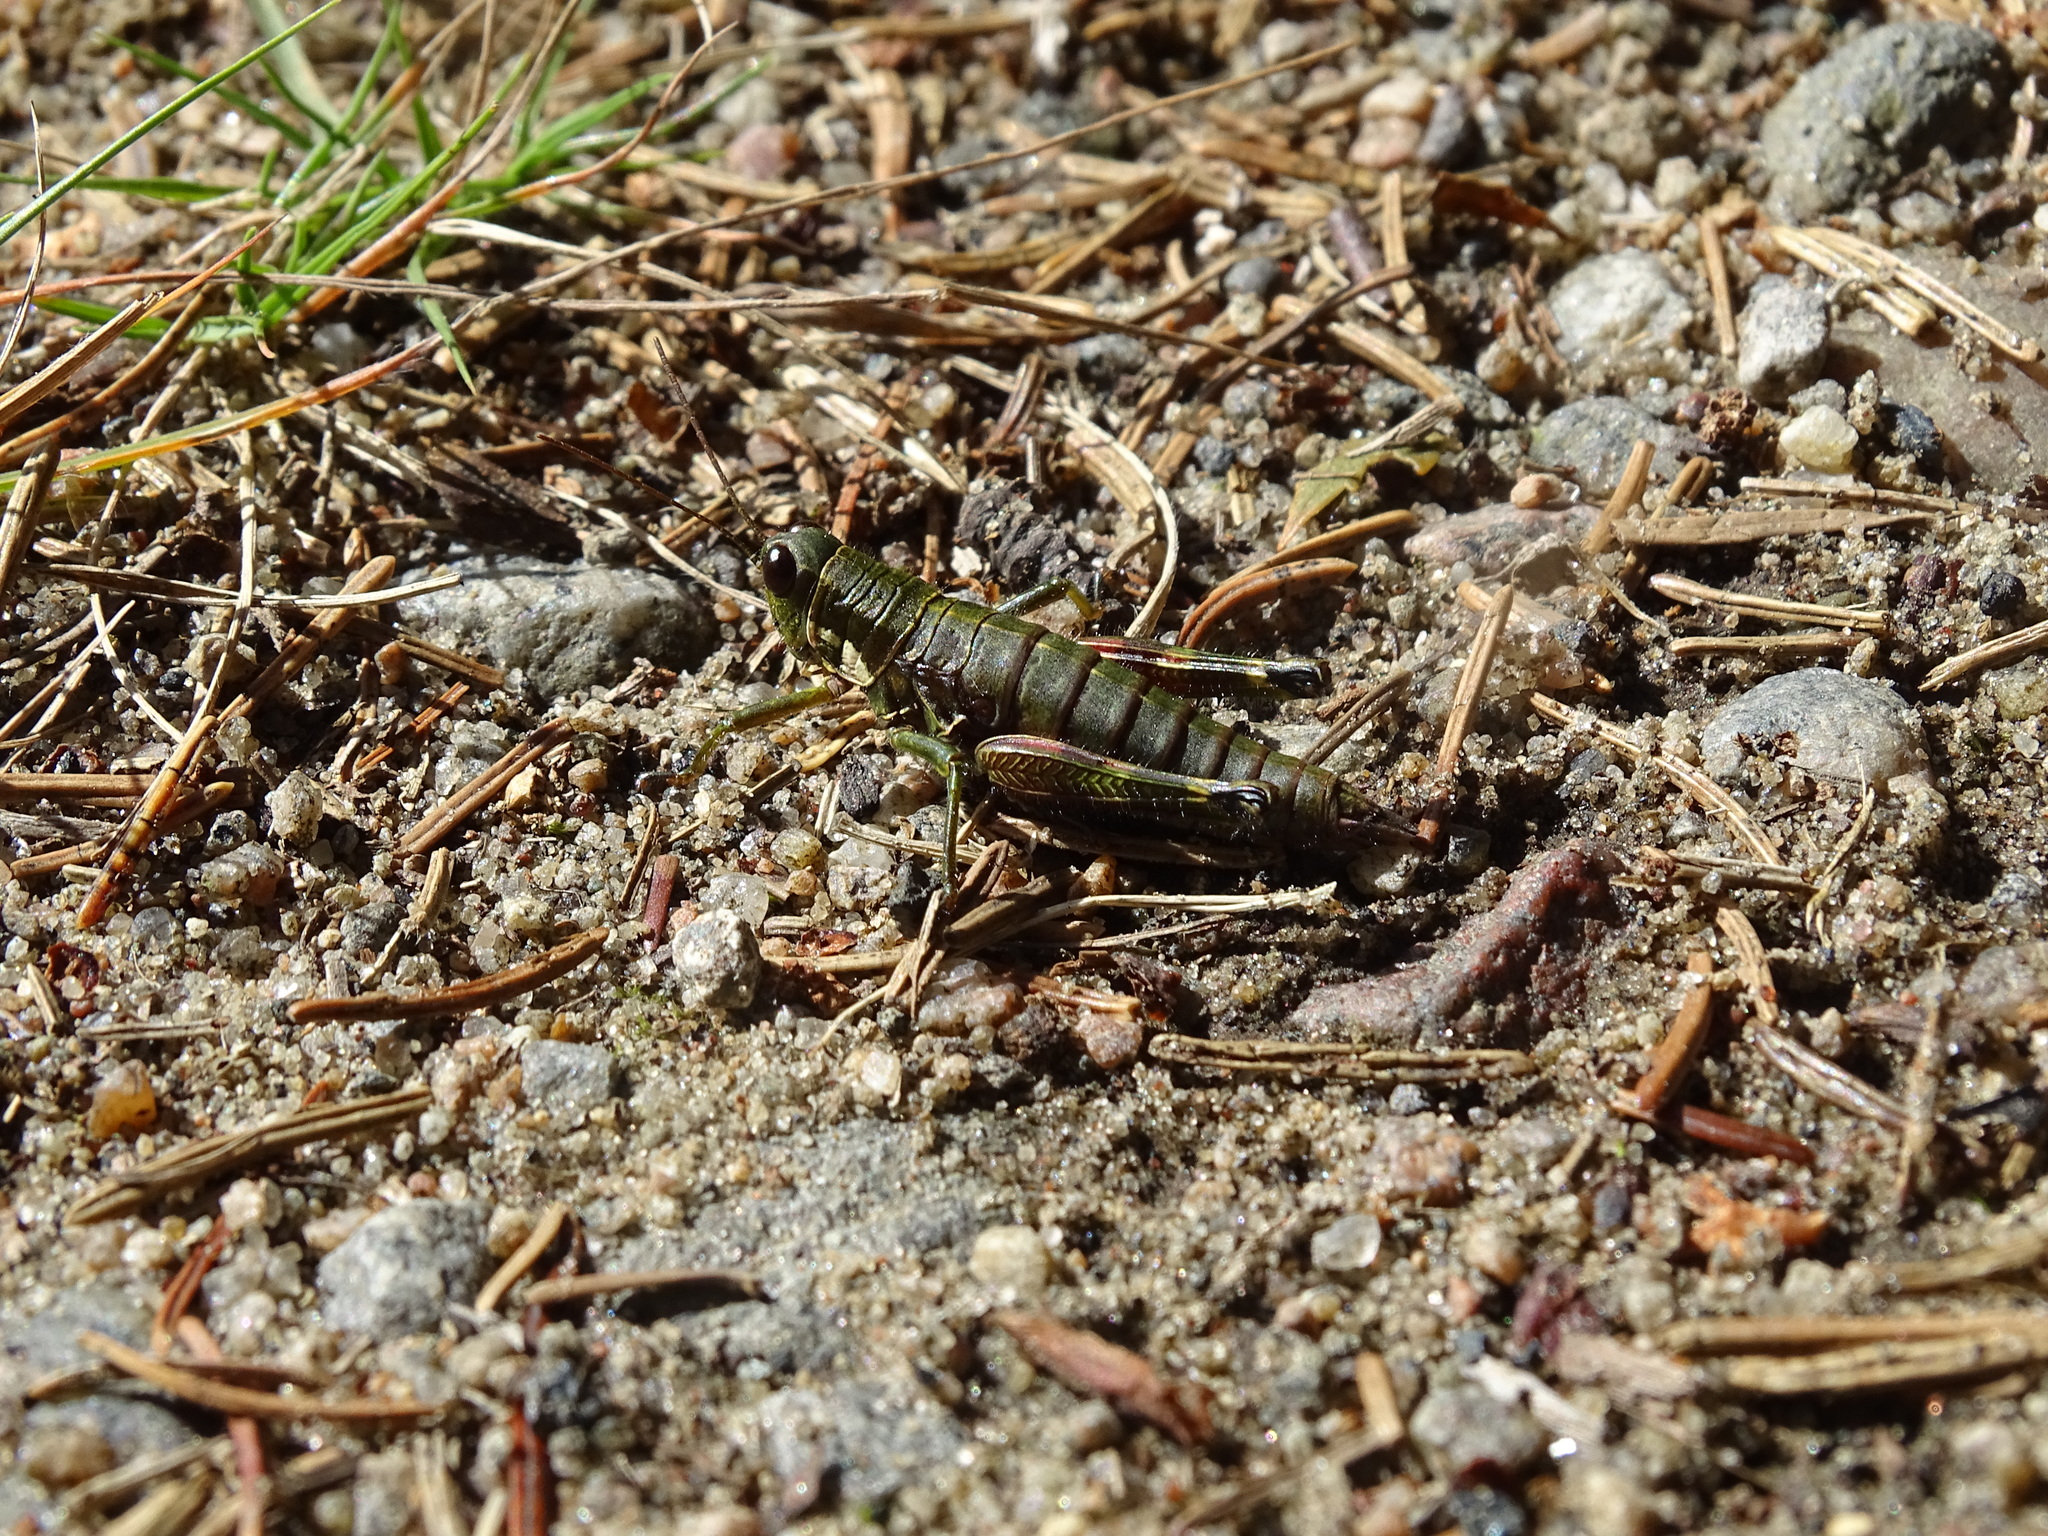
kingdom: Animalia
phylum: Arthropoda
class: Insecta
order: Orthoptera
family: Acrididae
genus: Booneacris
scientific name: Booneacris glacialis
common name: Wingless mountain grasshopper
